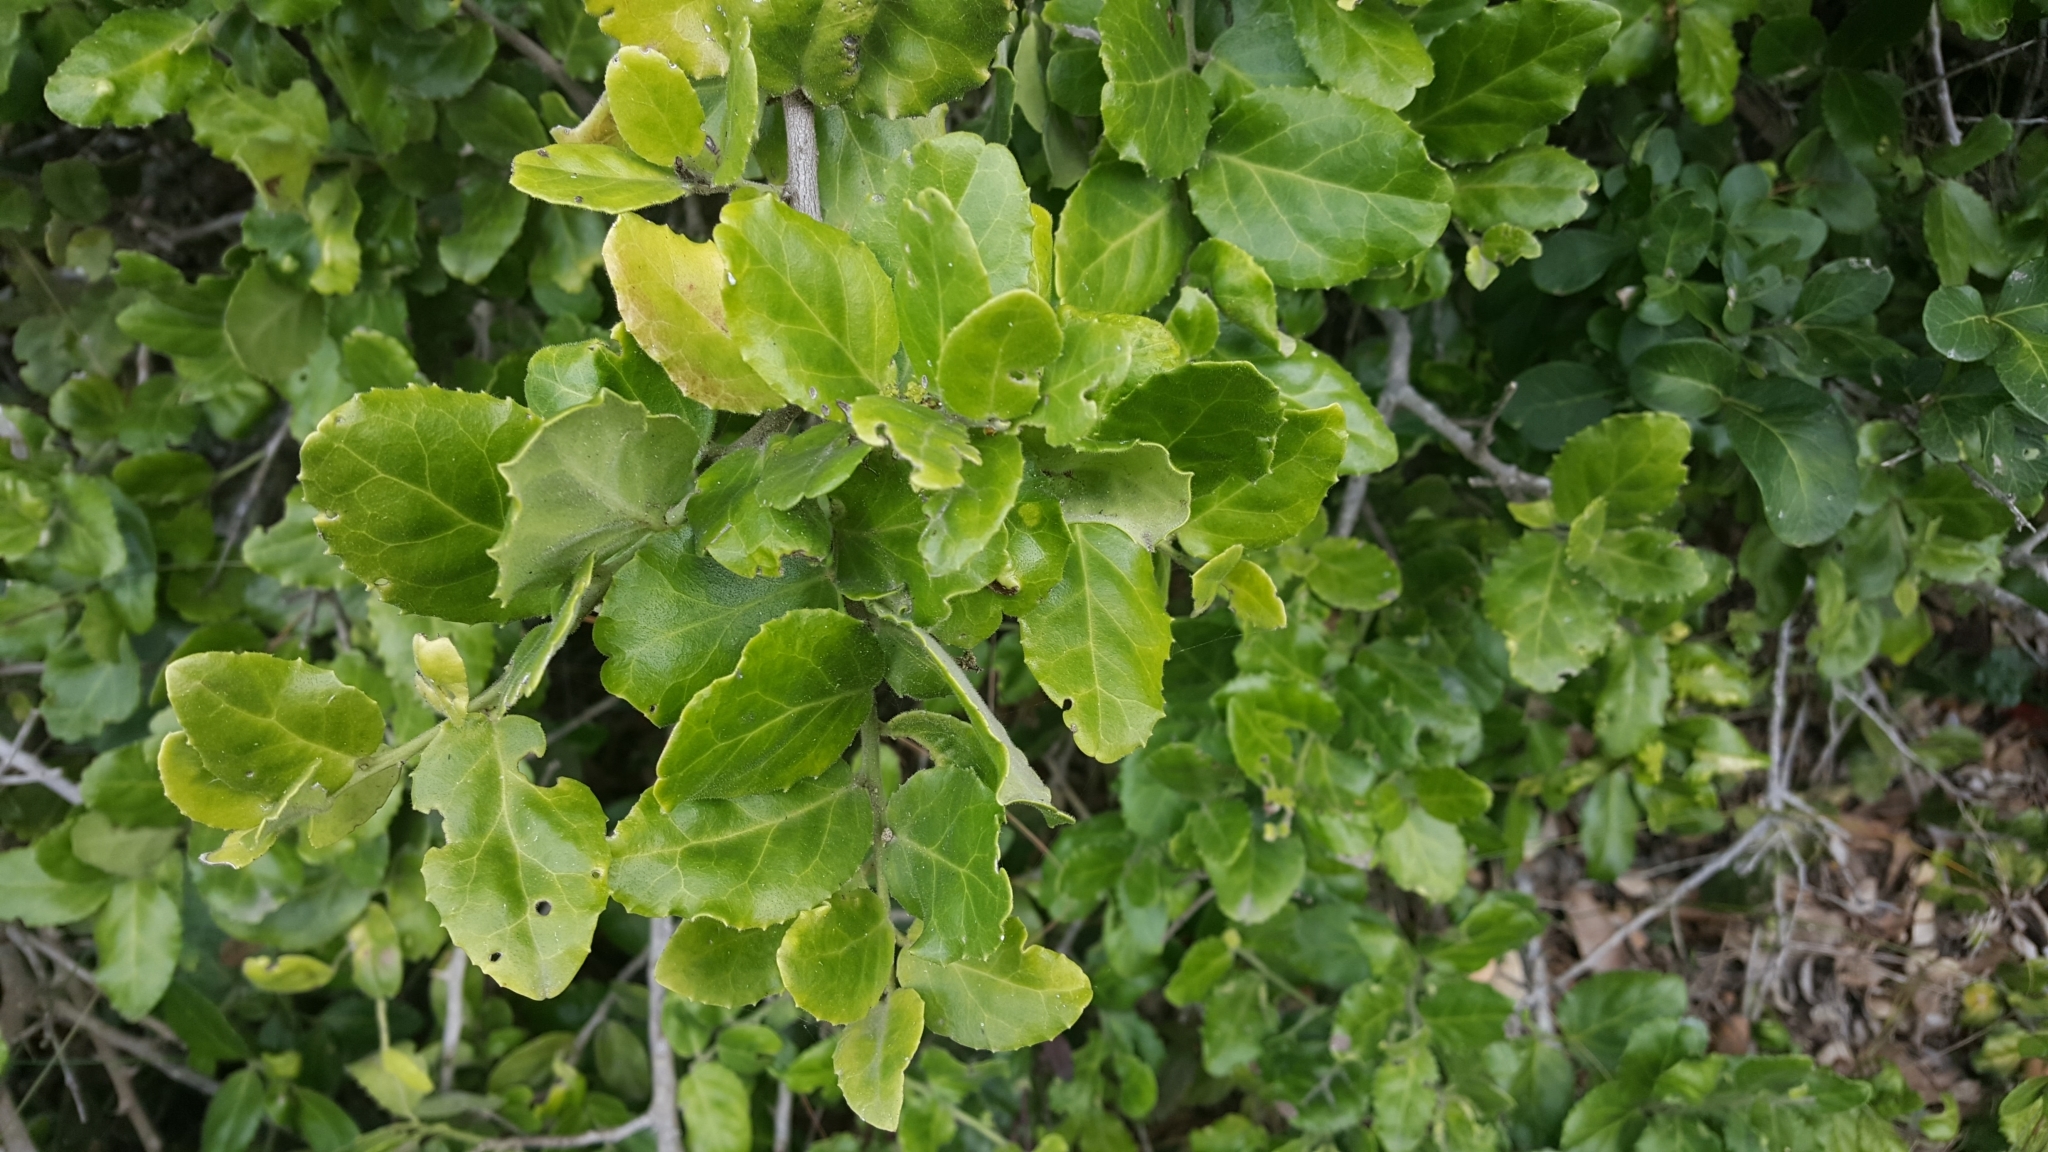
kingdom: Plantae
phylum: Tracheophyta
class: Magnoliopsida
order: Celastrales
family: Celastraceae
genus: Mystroxylon
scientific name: Mystroxylon aethiopicum
